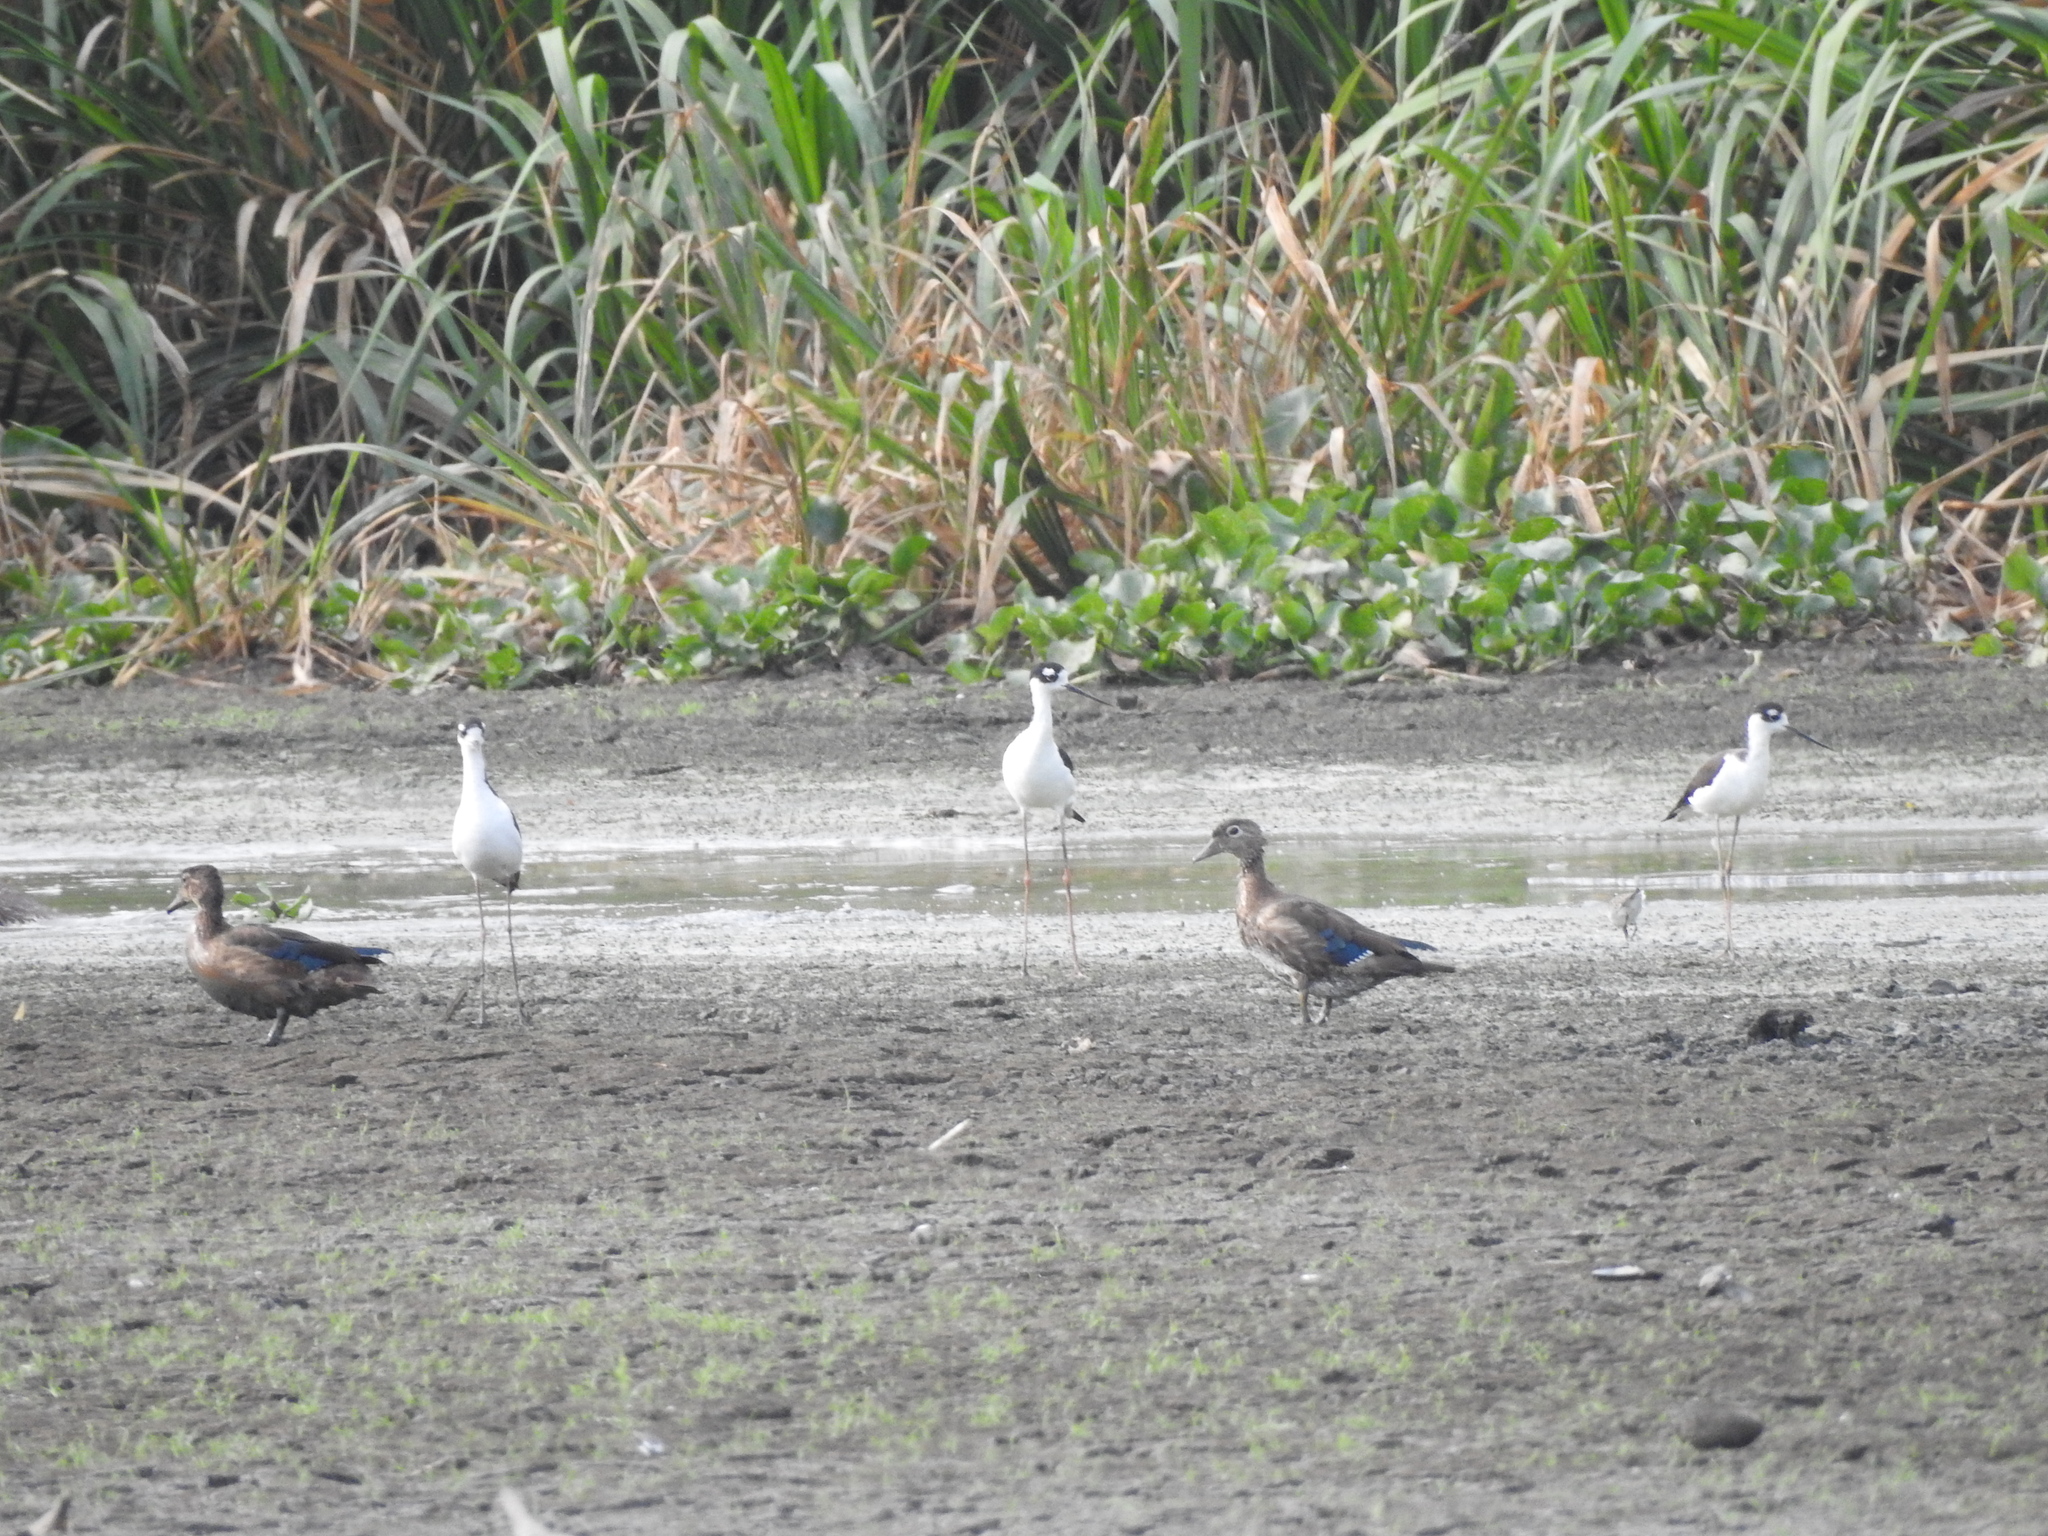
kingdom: Animalia
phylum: Chordata
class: Aves
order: Charadriiformes
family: Recurvirostridae
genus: Himantopus
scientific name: Himantopus mexicanus
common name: Black-necked stilt
